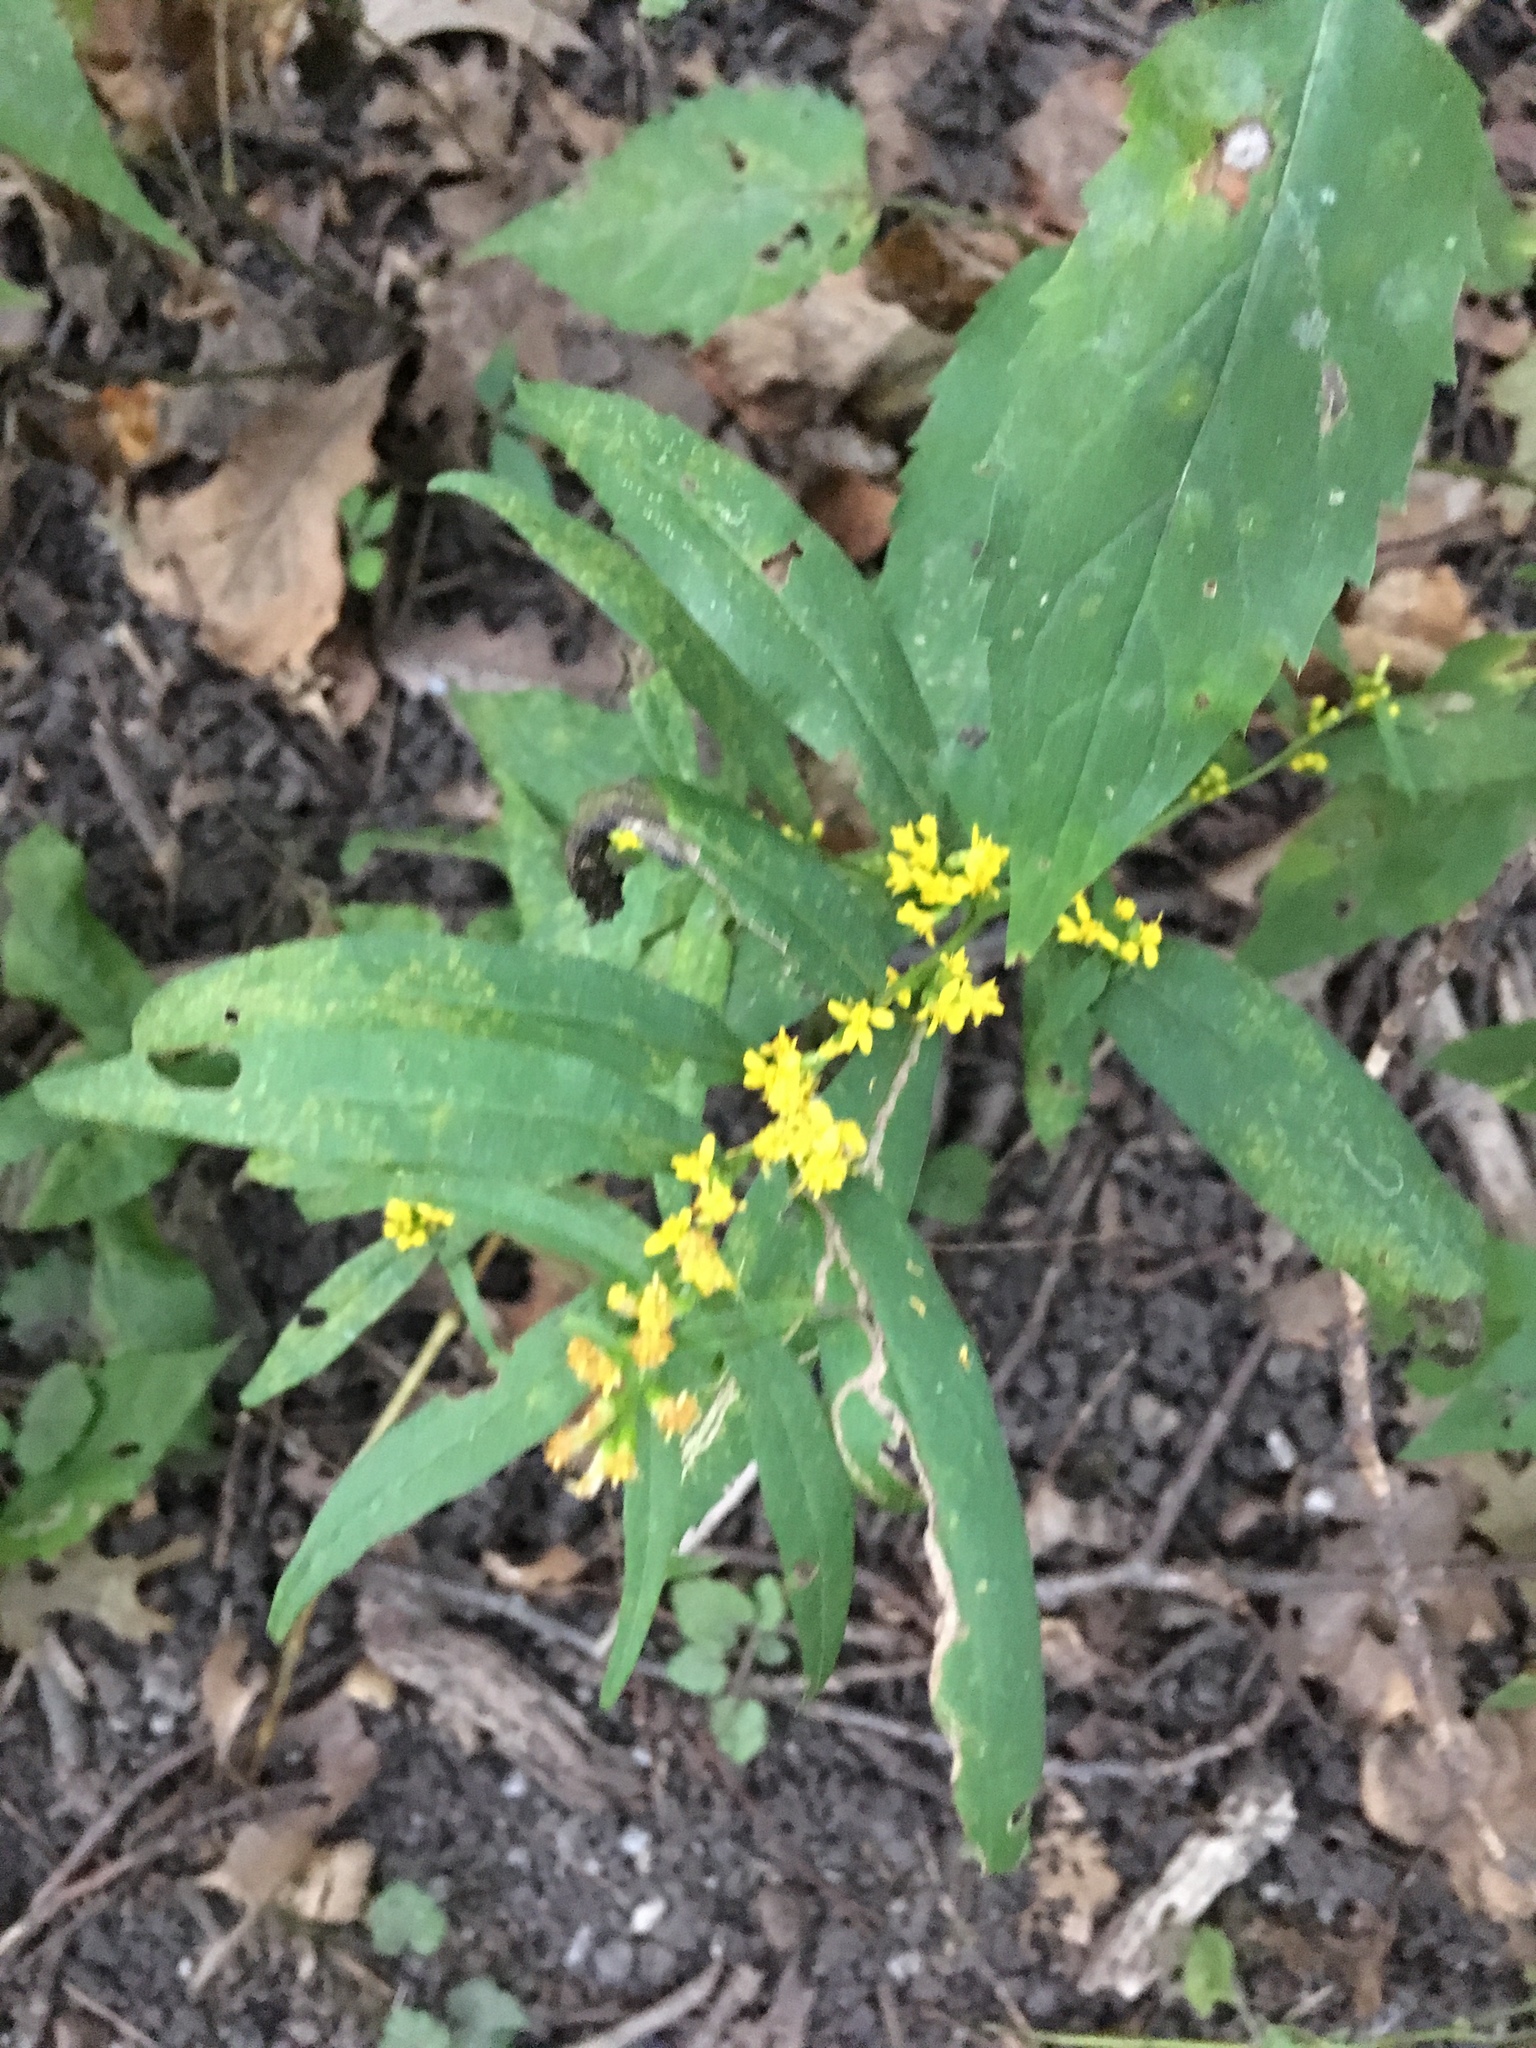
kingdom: Plantae
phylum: Tracheophyta
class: Magnoliopsida
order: Asterales
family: Asteraceae
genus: Solidago
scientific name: Solidago caesia
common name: Woodland goldenrod
